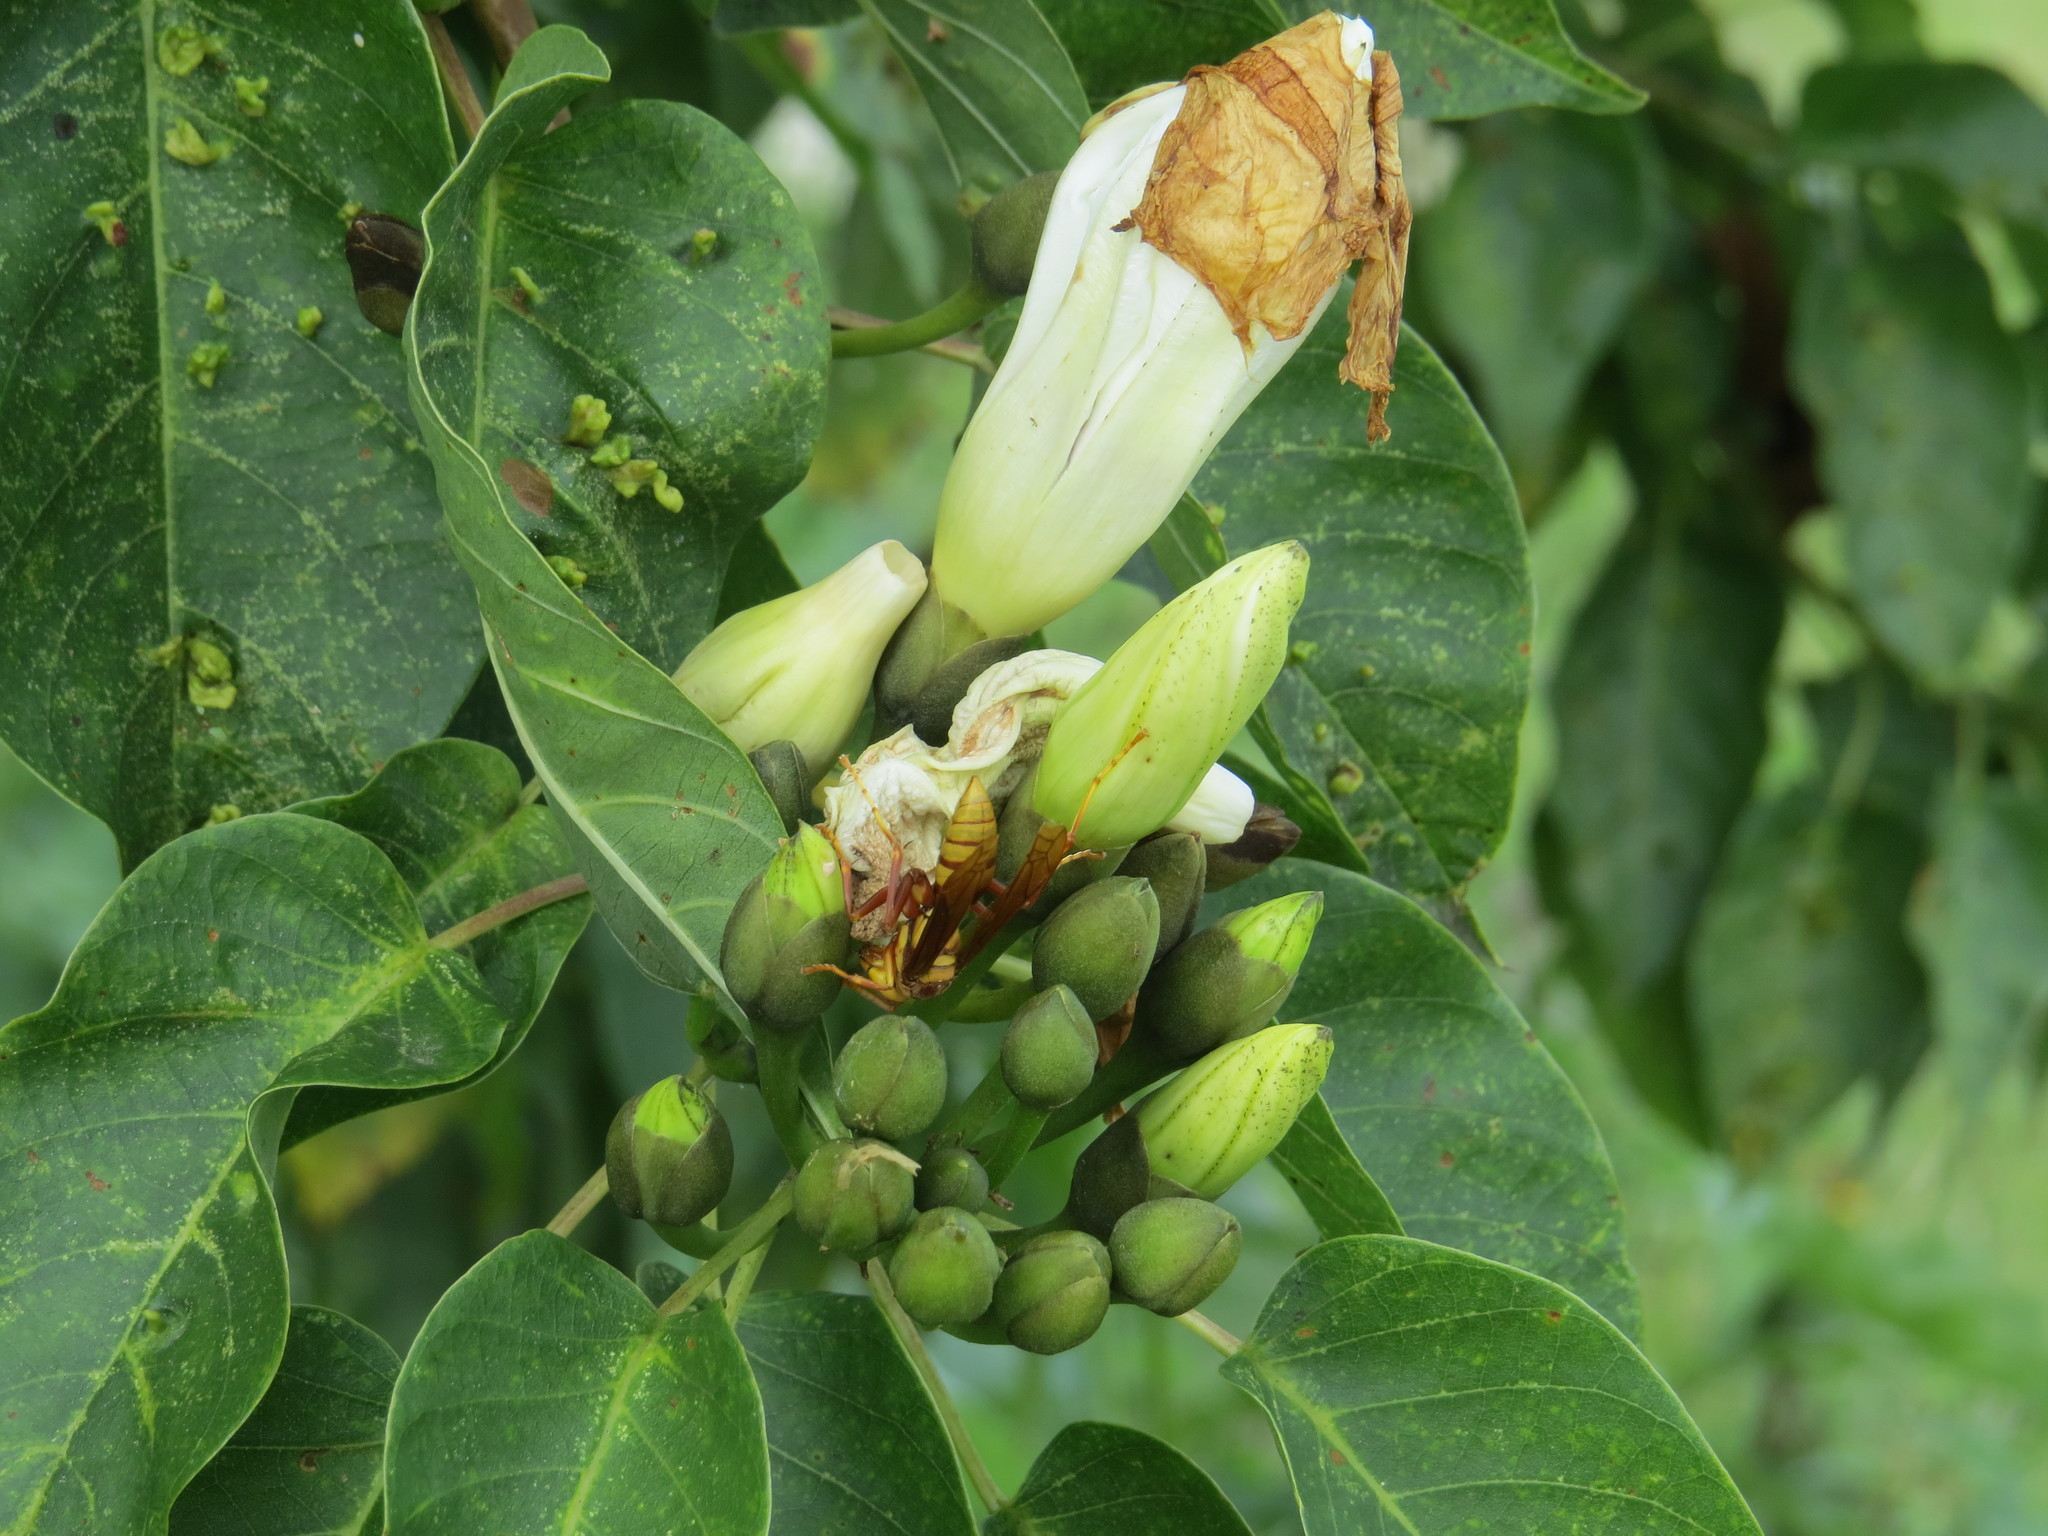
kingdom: Animalia
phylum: Arthropoda
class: Insecta
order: Hymenoptera
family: Eumenidae
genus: Polistes
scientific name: Polistes carnifex
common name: Paper wasp
